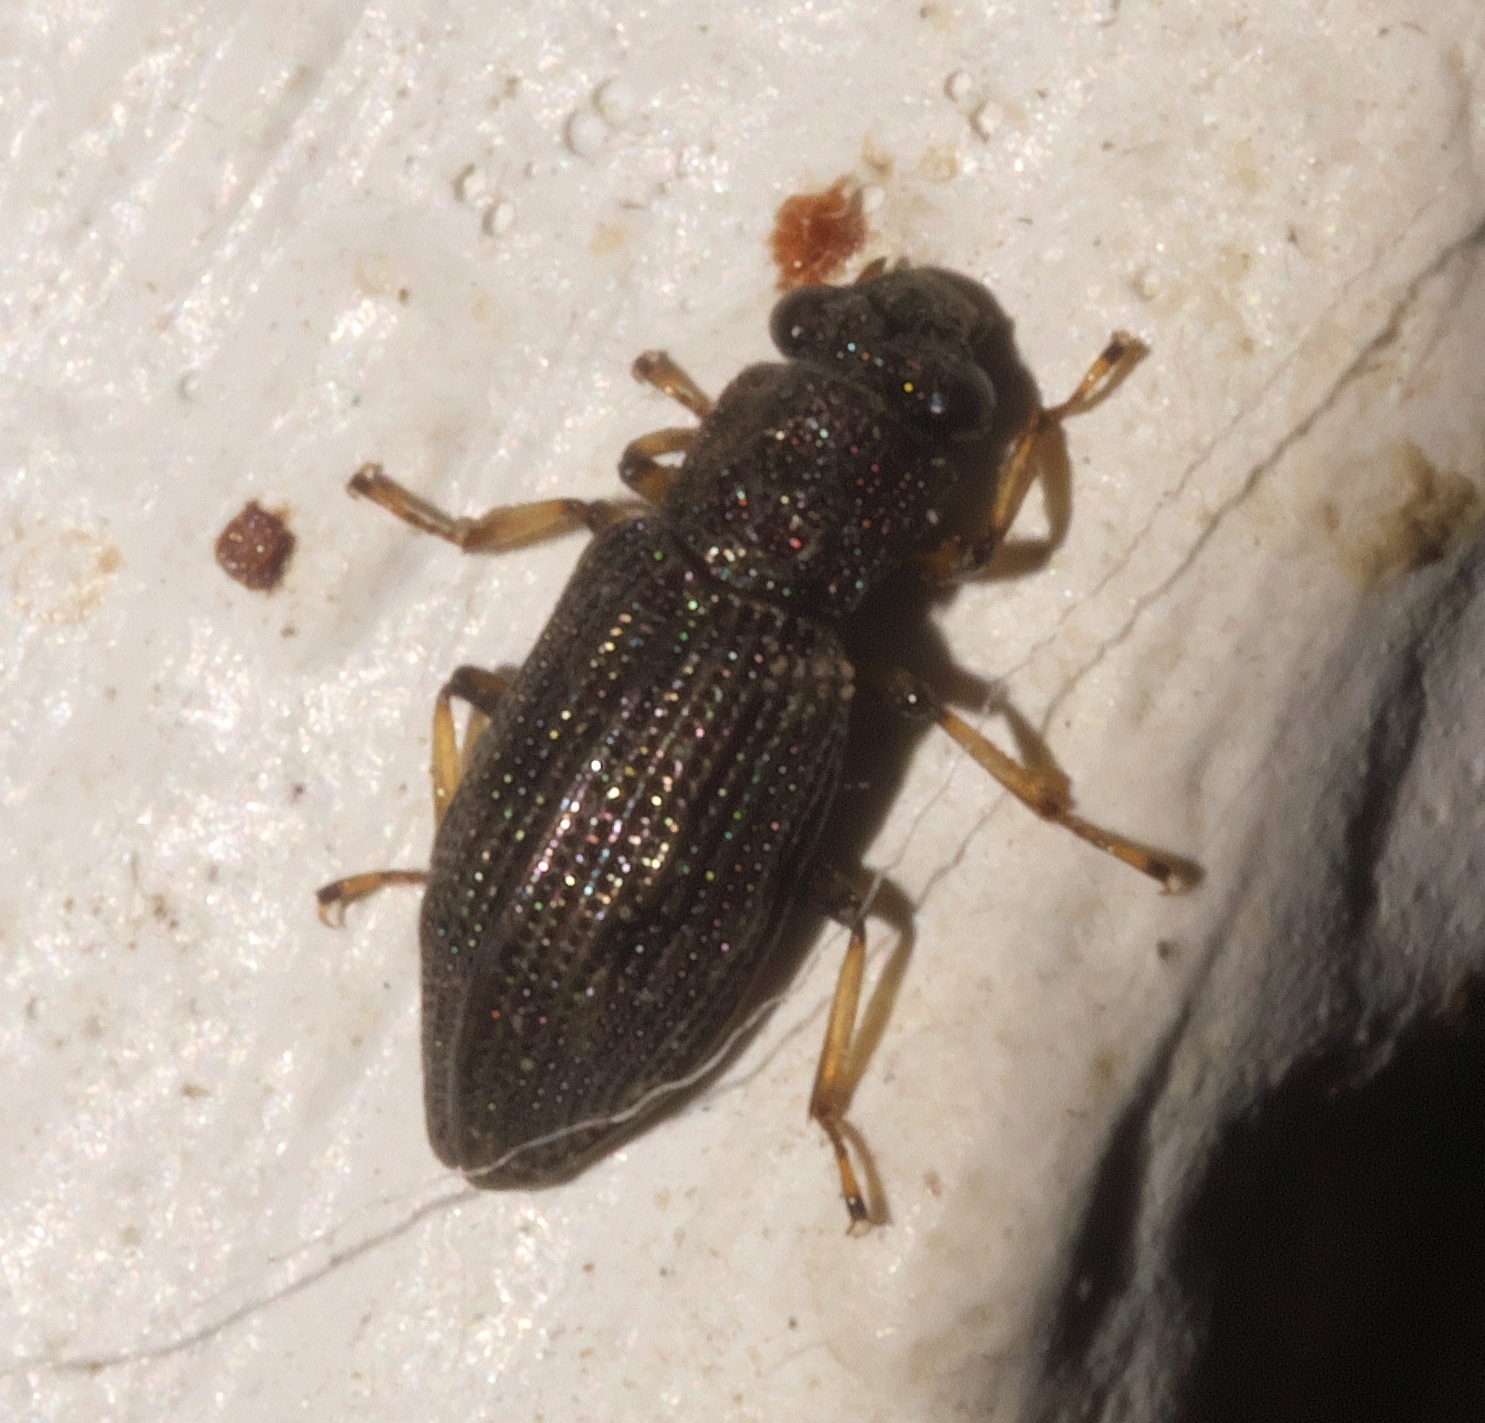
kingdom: Animalia
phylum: Arthropoda
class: Insecta
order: Coleoptera
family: Hydrochidae
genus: Hydrochus
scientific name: Hydrochus
